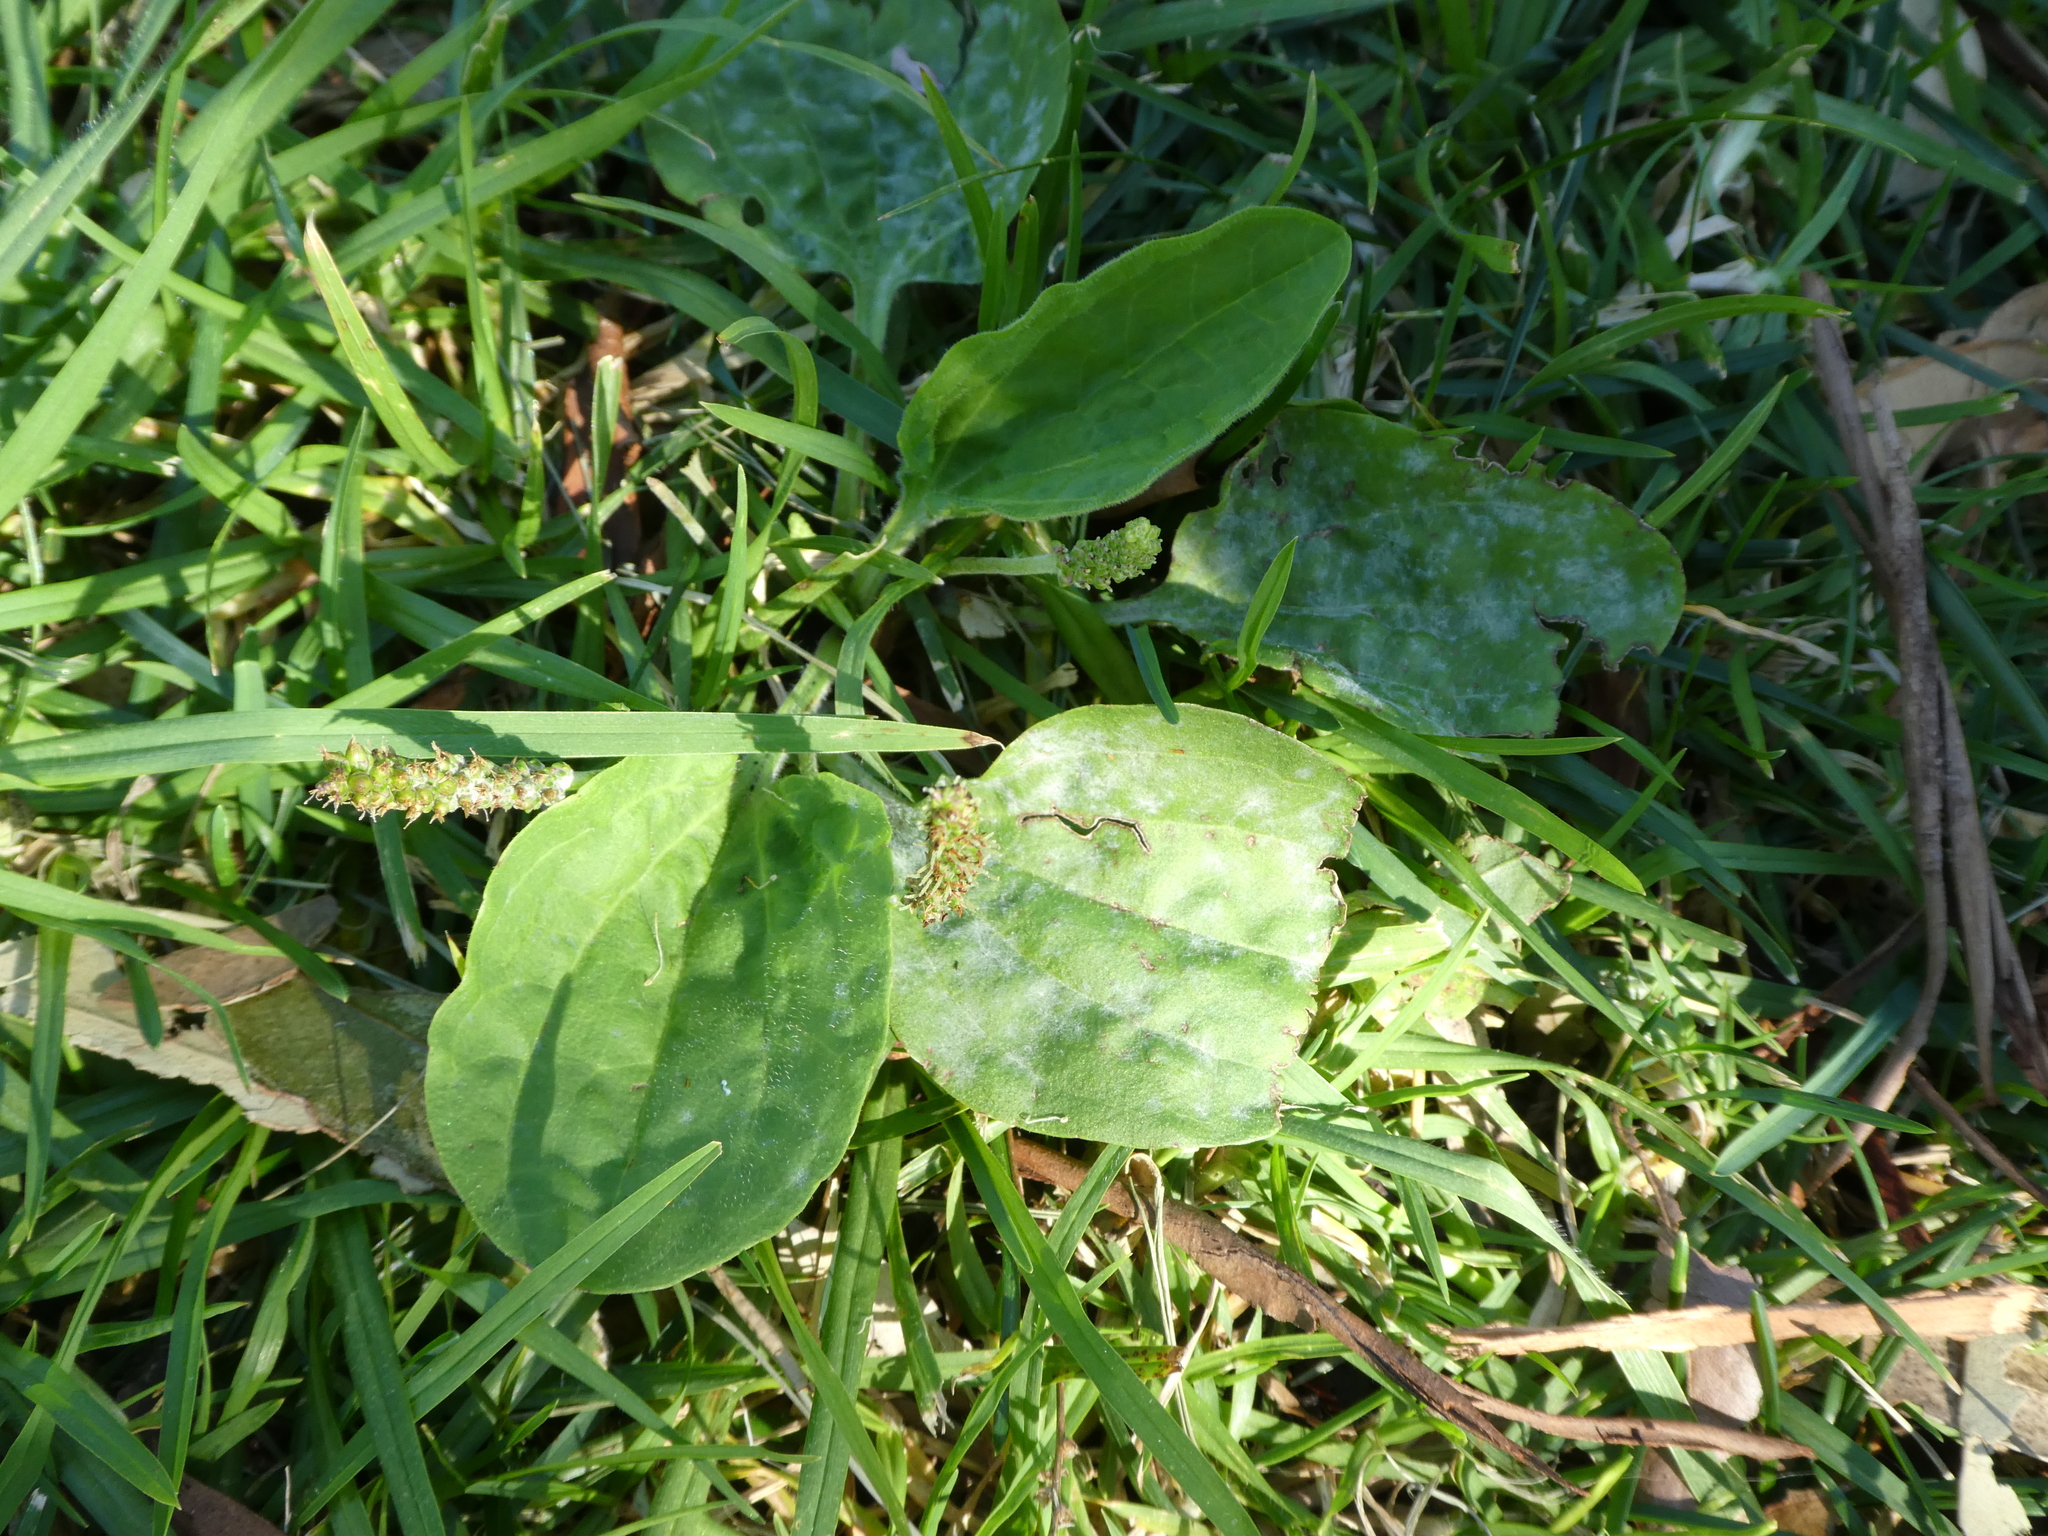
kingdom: Plantae
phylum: Tracheophyta
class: Magnoliopsida
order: Lamiales
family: Plantaginaceae
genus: Plantago
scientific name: Plantago major
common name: Common plantain
